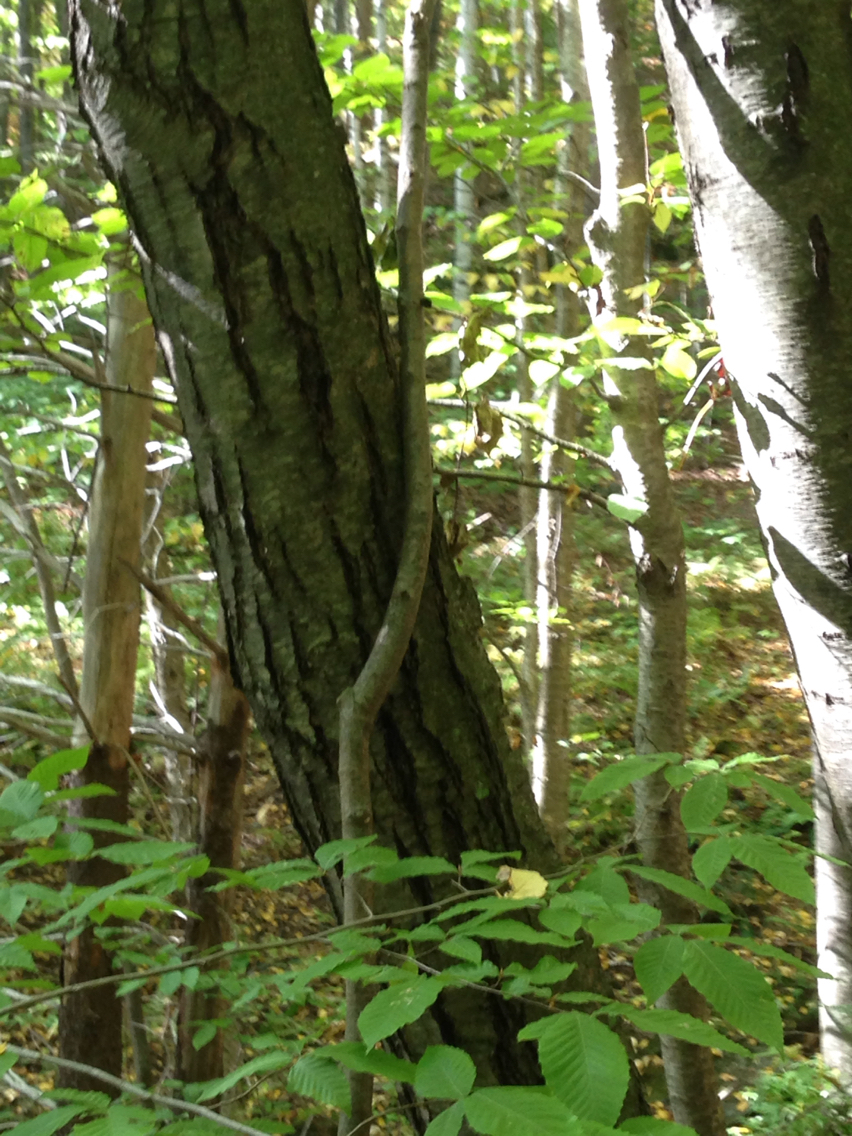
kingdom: Plantae
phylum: Tracheophyta
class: Magnoliopsida
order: Fagales
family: Betulaceae
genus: Betula
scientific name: Betula lenta
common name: Black birch
